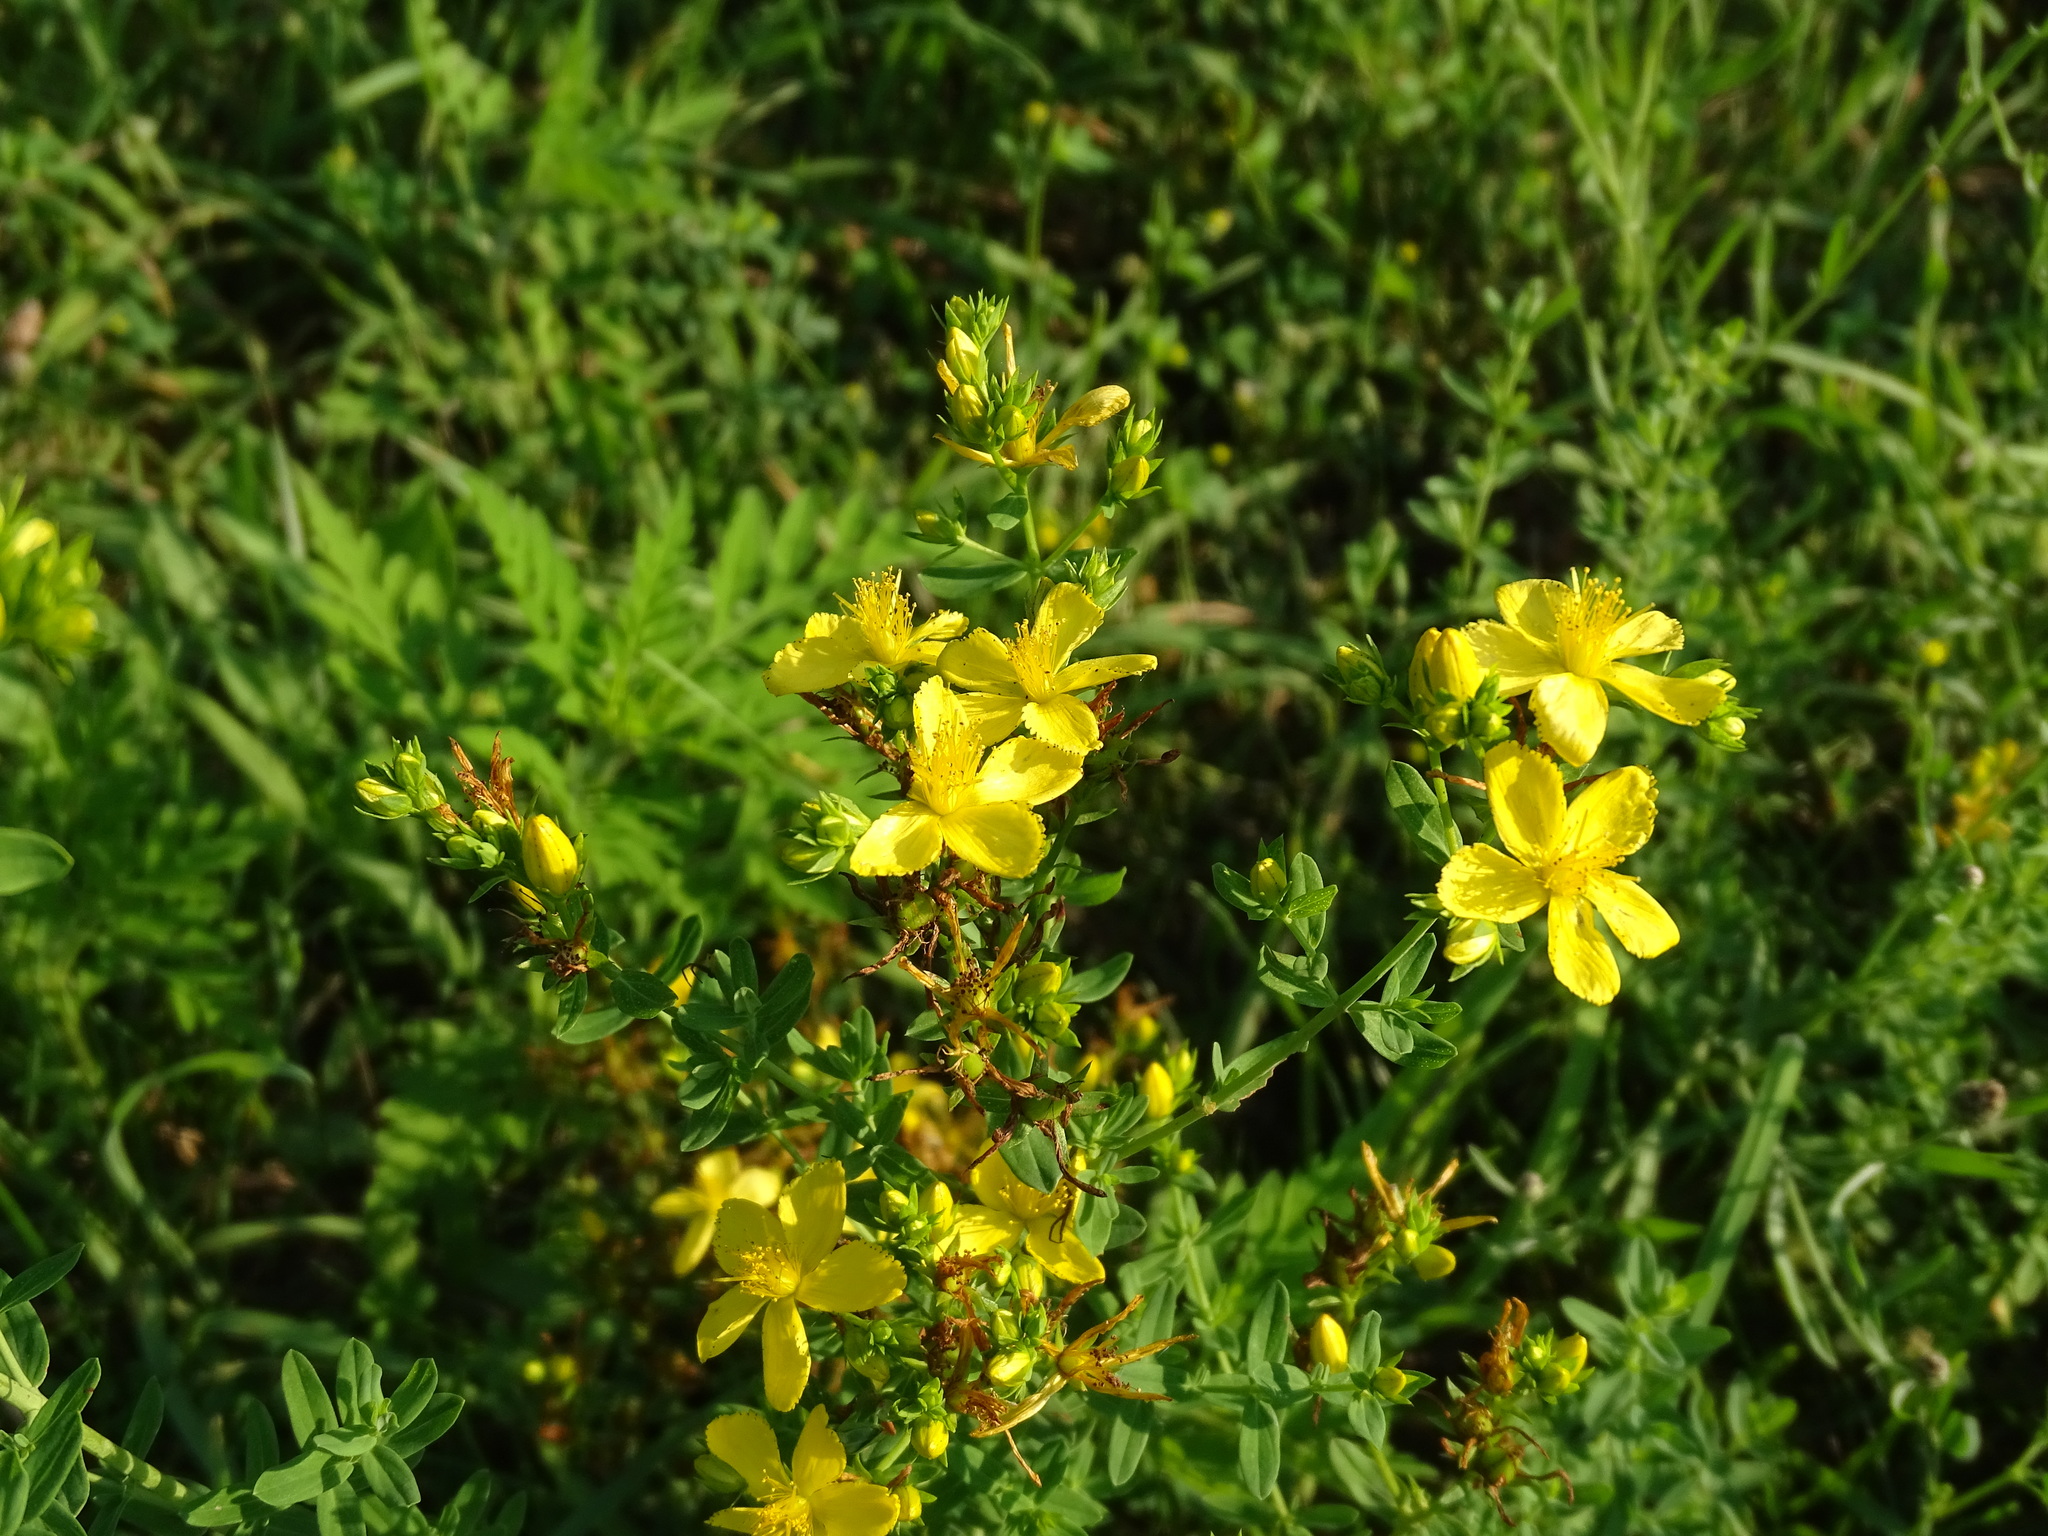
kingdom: Plantae
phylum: Tracheophyta
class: Magnoliopsida
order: Malpighiales
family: Hypericaceae
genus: Hypericum
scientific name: Hypericum perforatum
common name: Common st. johnswort
